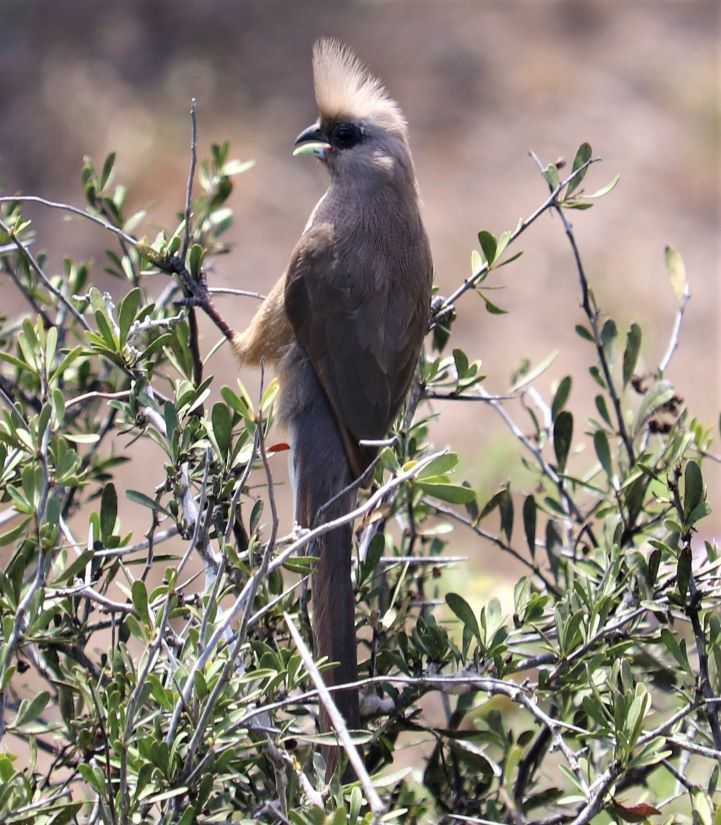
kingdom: Animalia
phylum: Chordata
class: Aves
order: Coliiformes
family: Coliidae
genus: Colius
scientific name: Colius striatus
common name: Speckled mousebird
